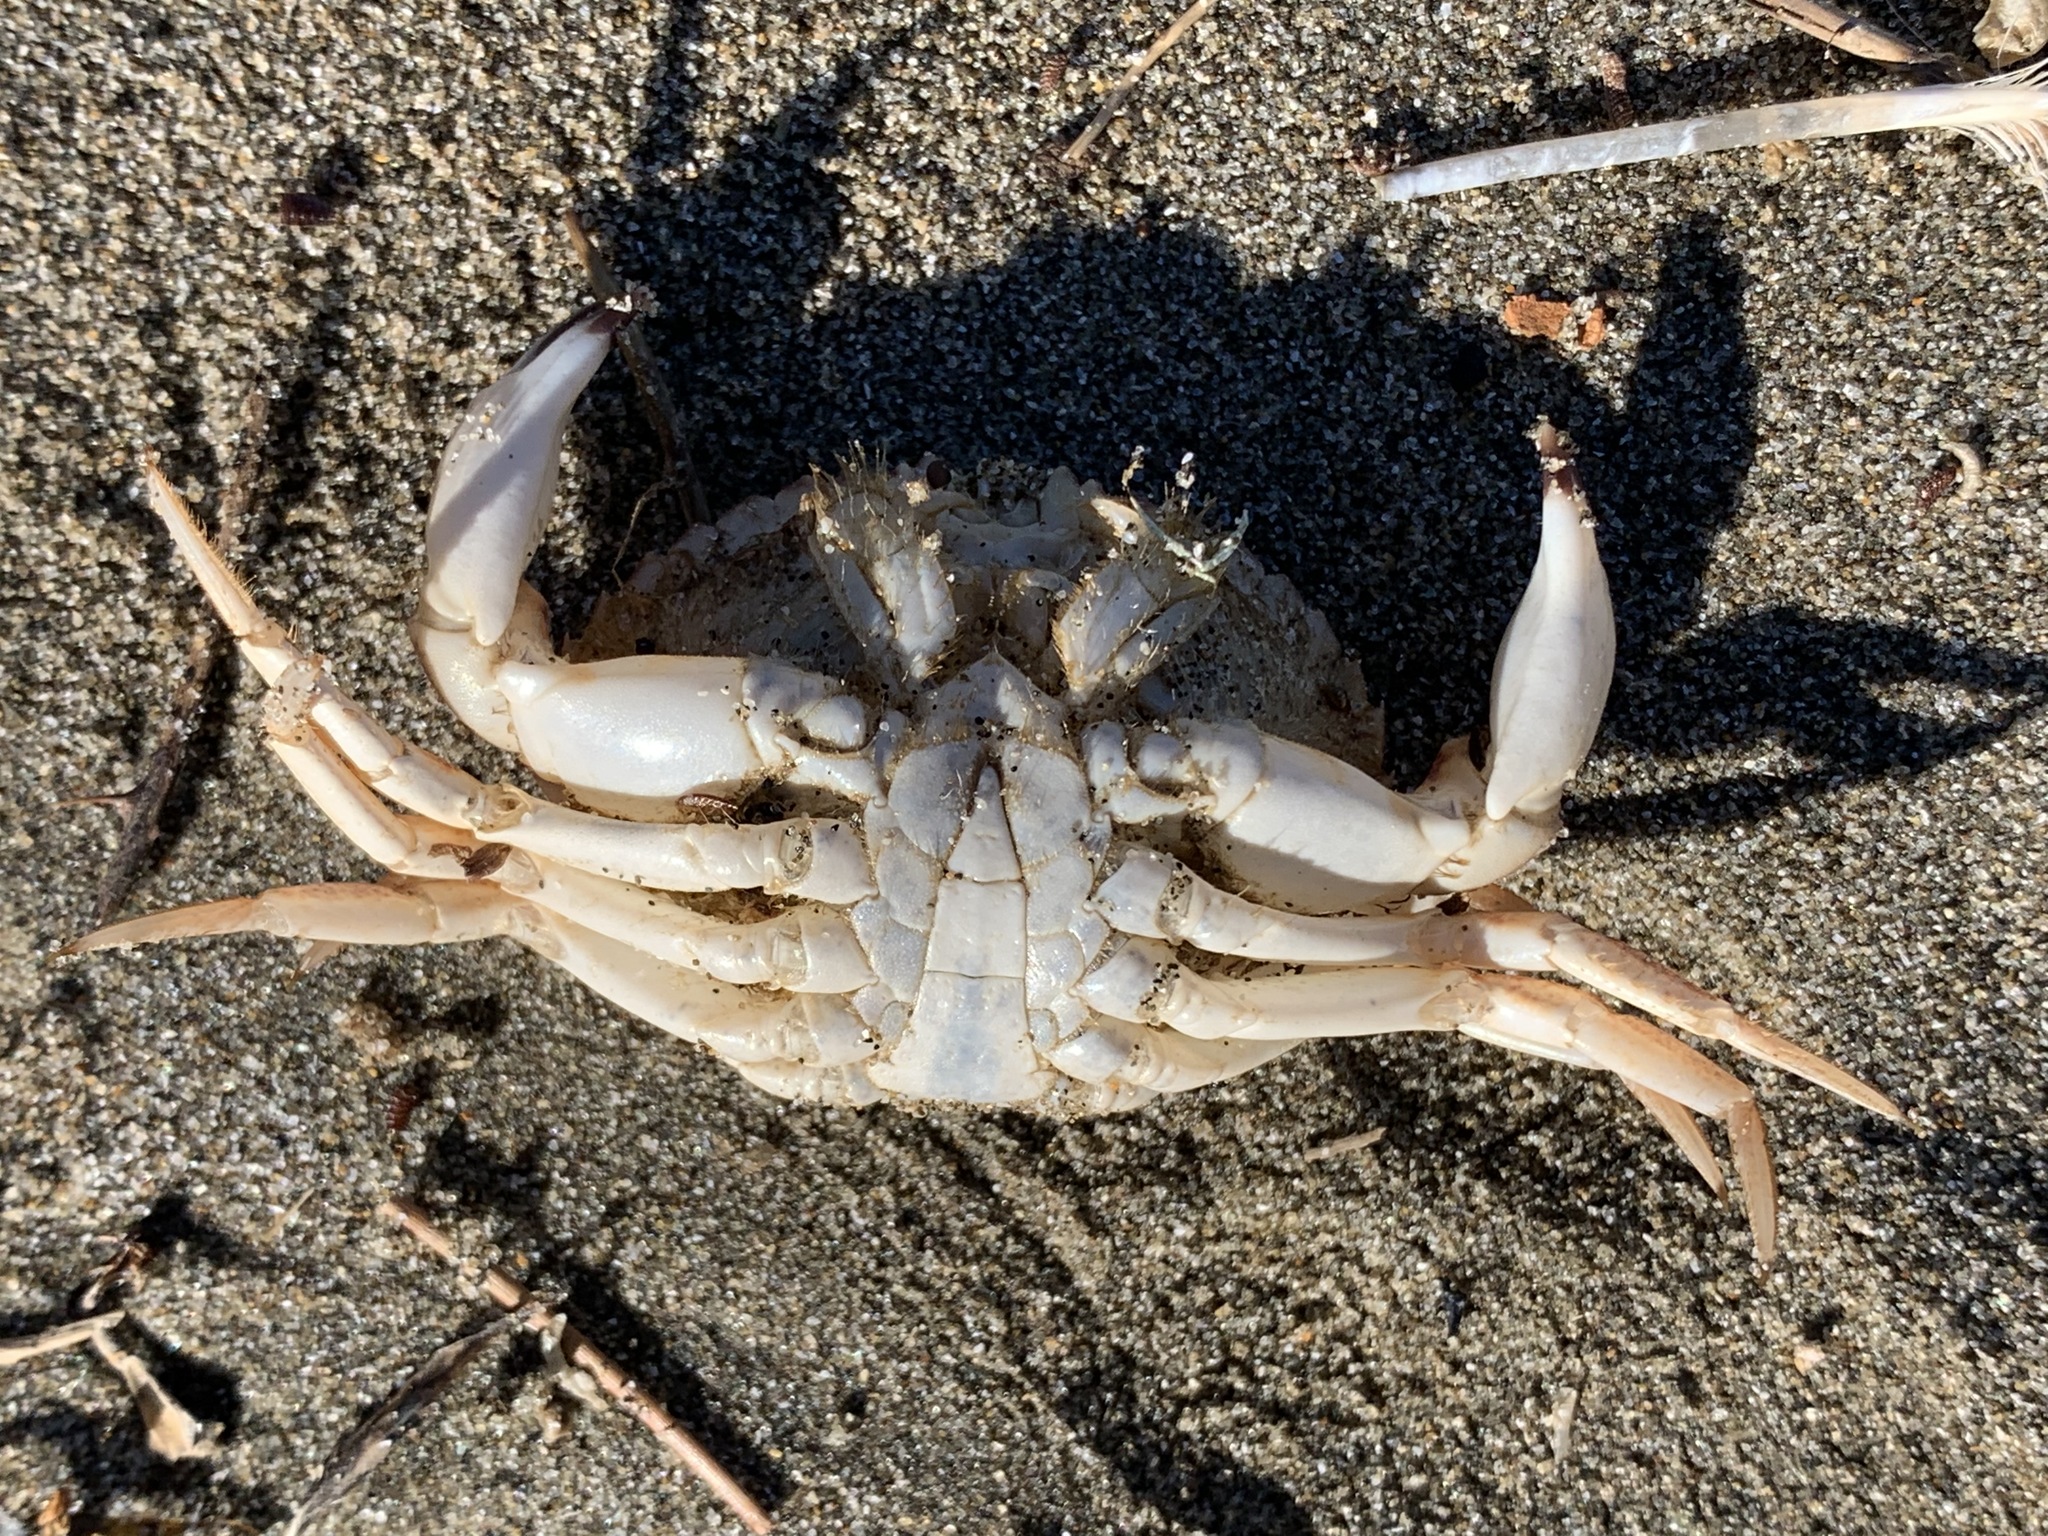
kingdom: Animalia
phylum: Arthropoda
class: Malacostraca
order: Decapoda
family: Cancridae
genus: Metacarcinus
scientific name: Metacarcinus anthonyi
